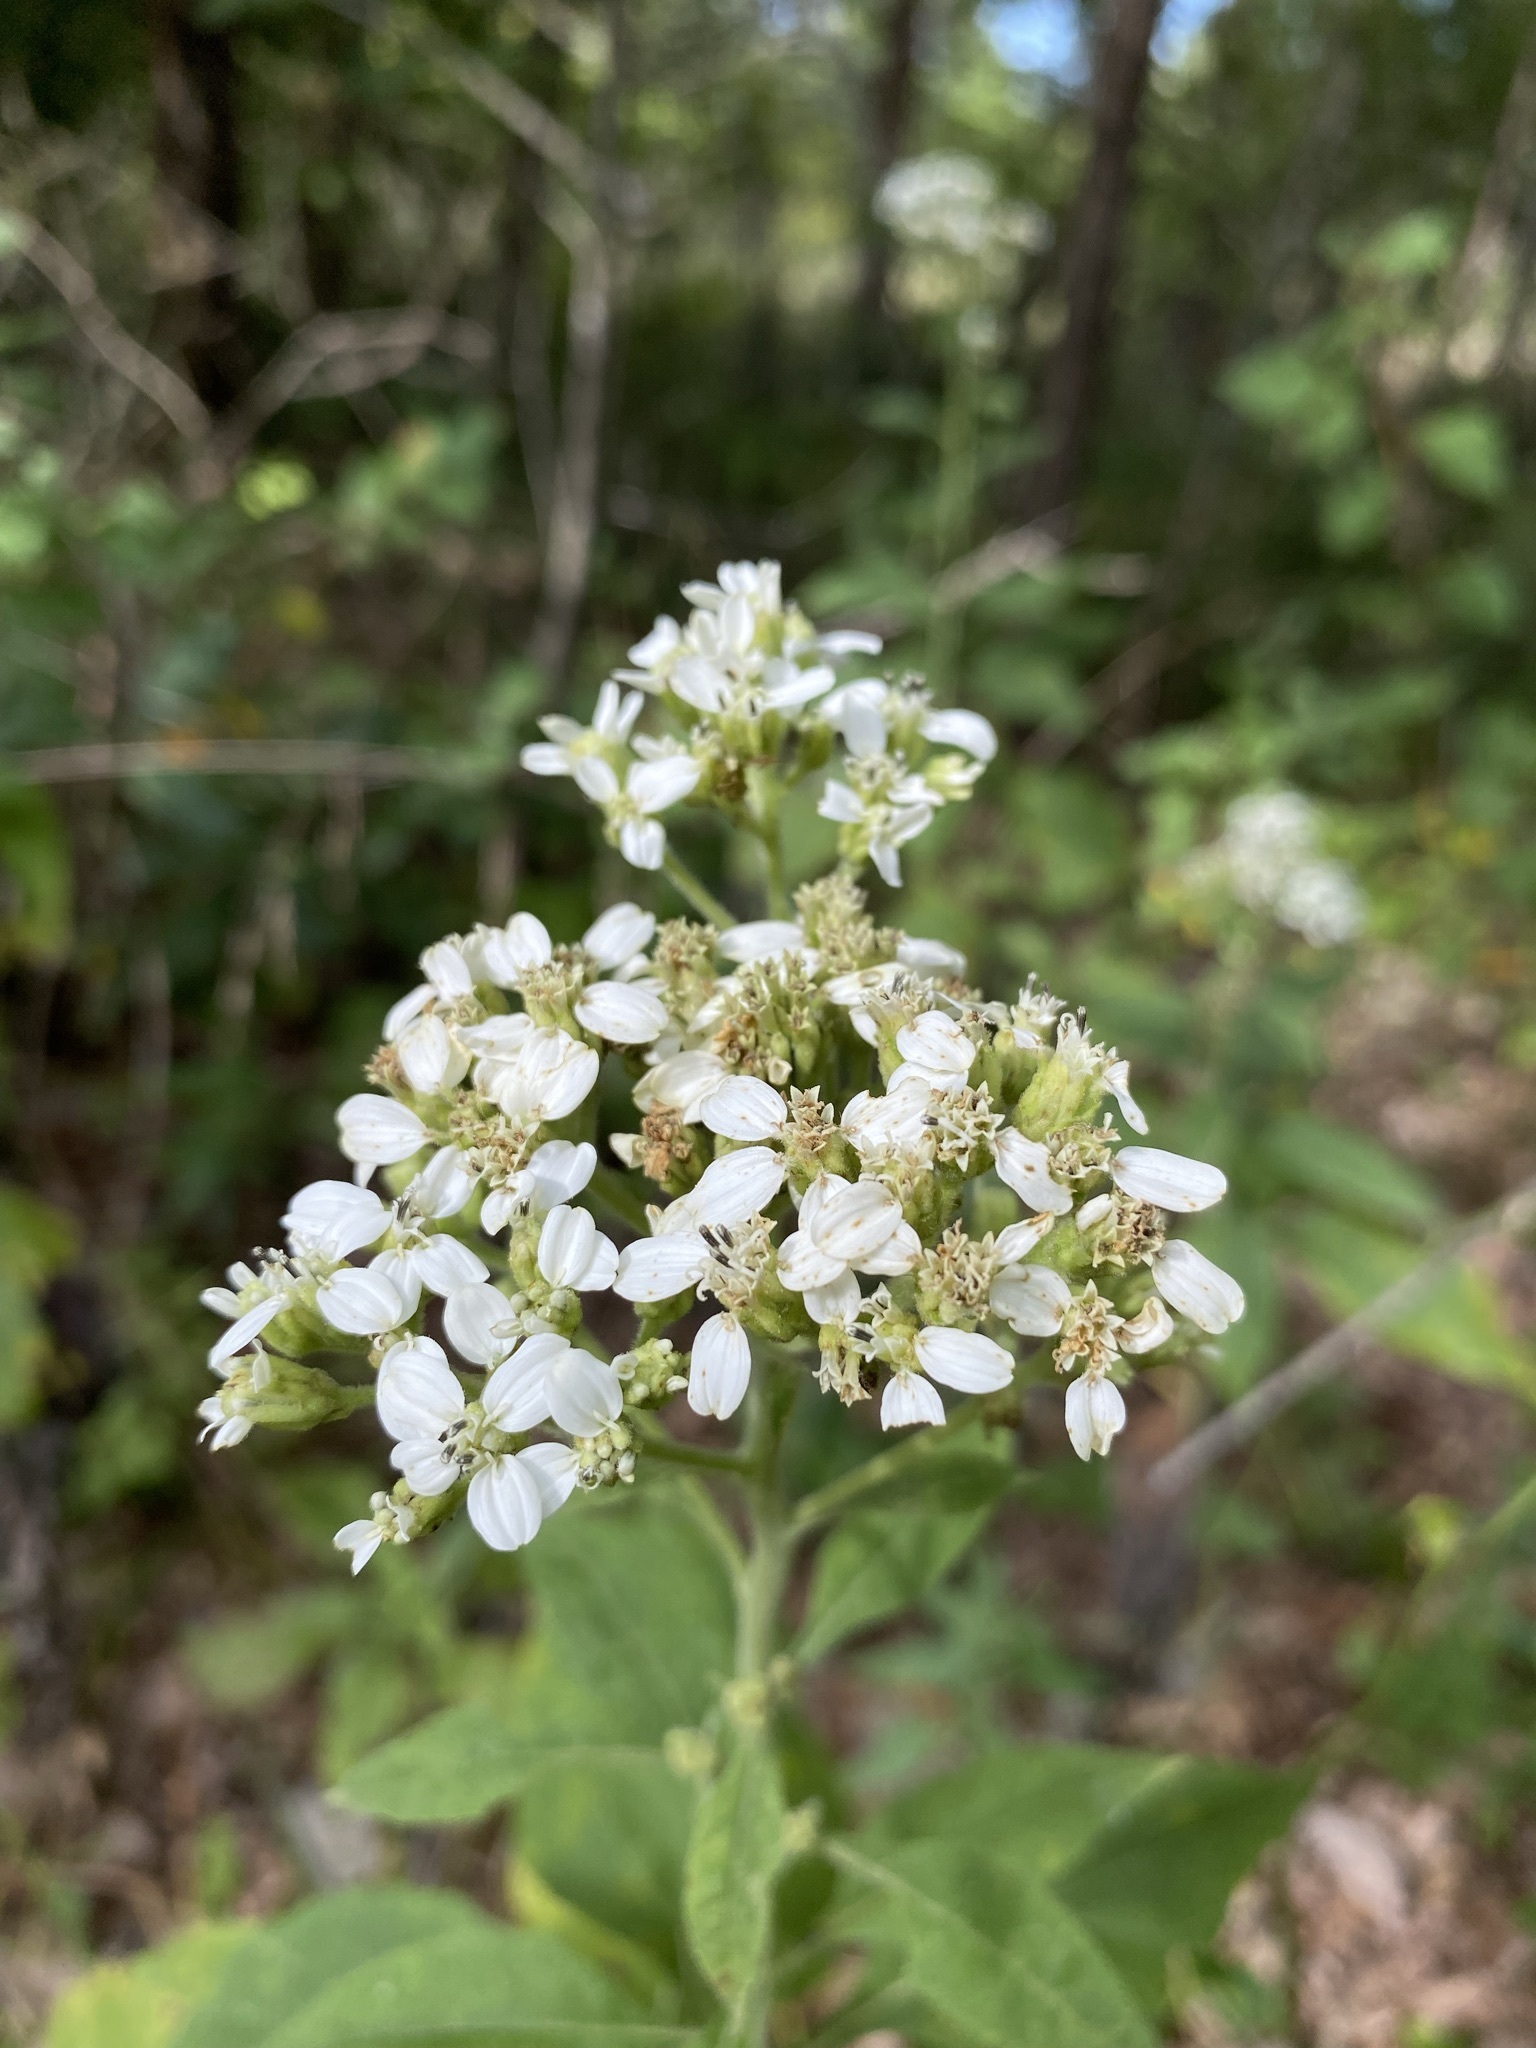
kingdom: Plantae
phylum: Tracheophyta
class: Magnoliopsida
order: Asterales
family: Asteraceae
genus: Verbesina
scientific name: Verbesina virginica
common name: Frostweed
